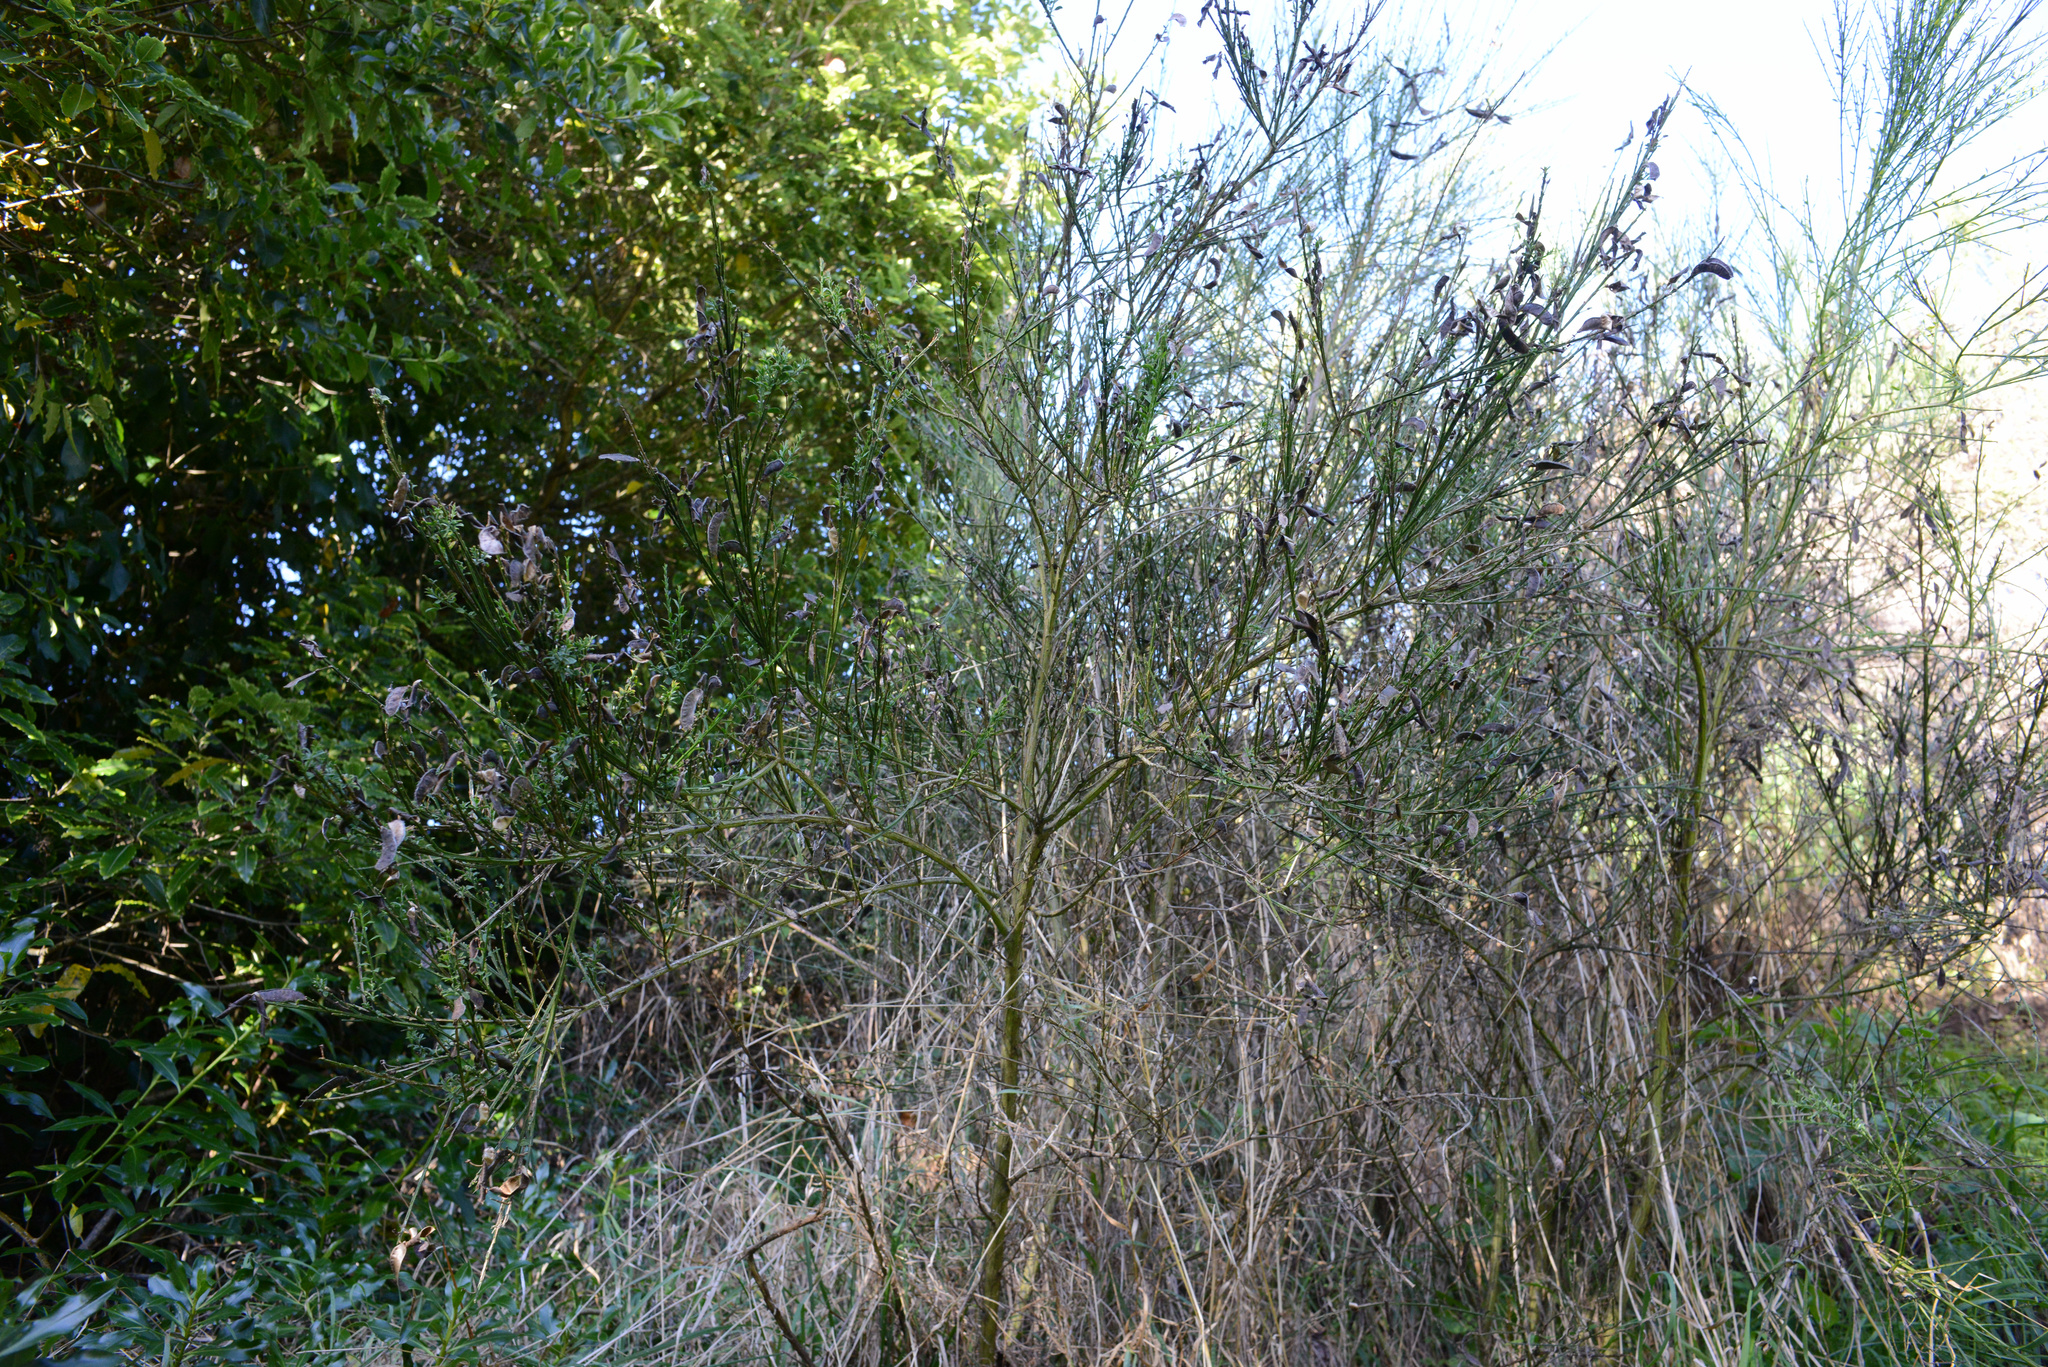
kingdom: Plantae
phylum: Tracheophyta
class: Magnoliopsida
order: Fabales
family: Fabaceae
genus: Cytisus
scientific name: Cytisus scoparius
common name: Scotch broom
